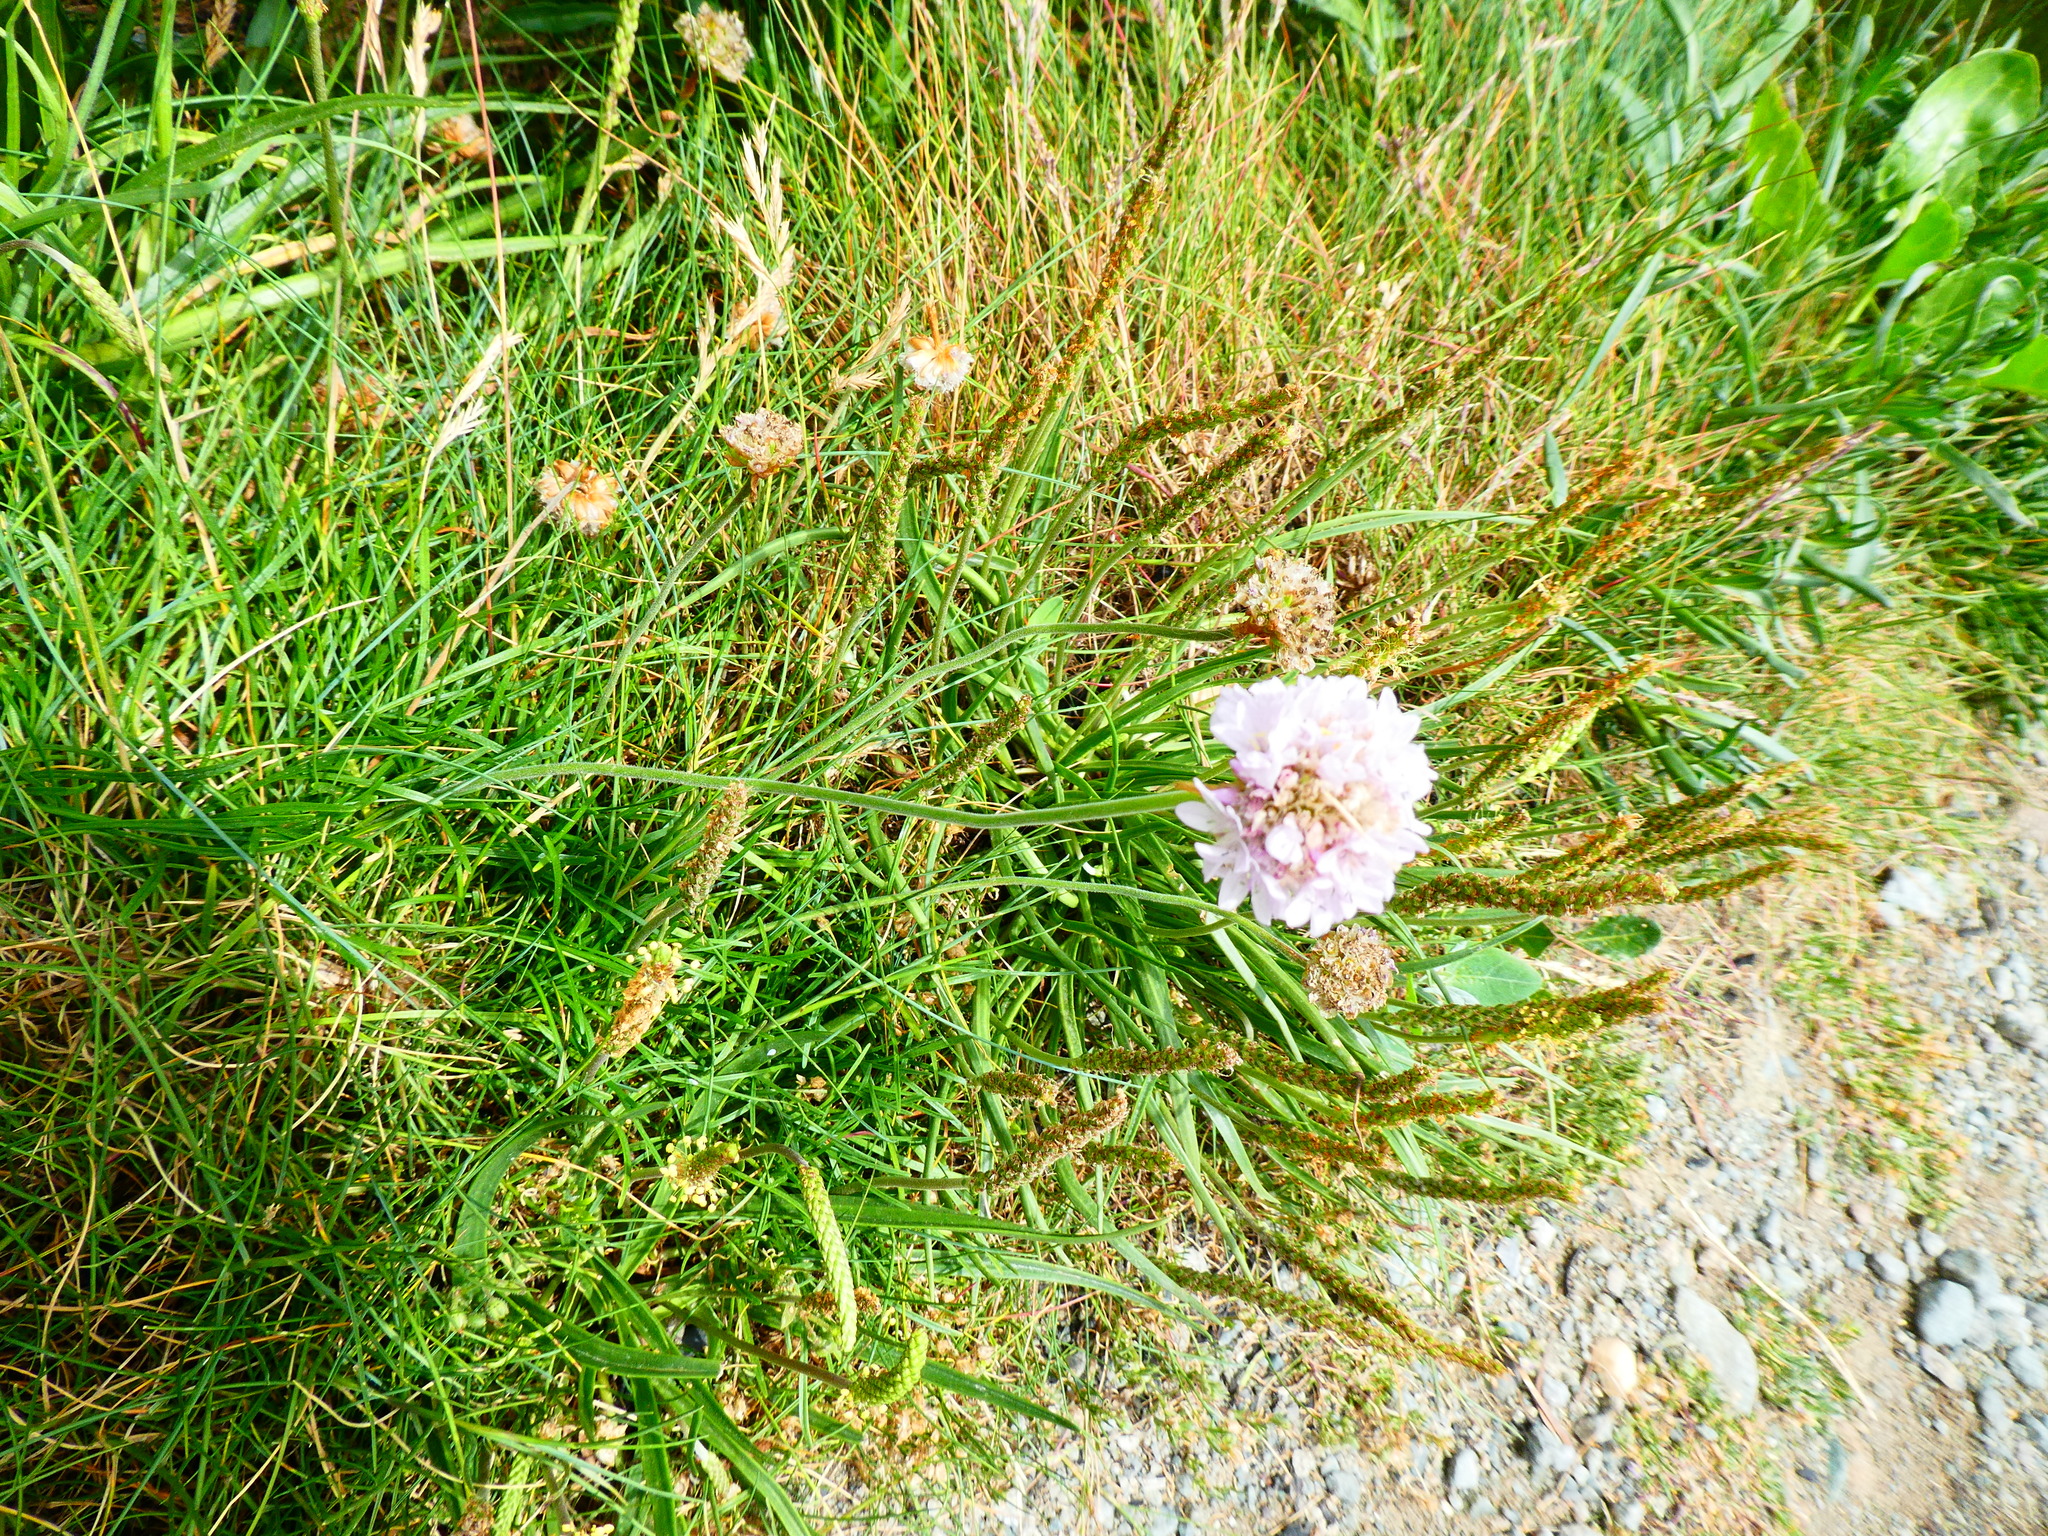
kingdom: Plantae
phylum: Tracheophyta
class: Magnoliopsida
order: Caryophyllales
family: Plumbaginaceae
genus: Armeria
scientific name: Armeria maritima
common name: Thrift
